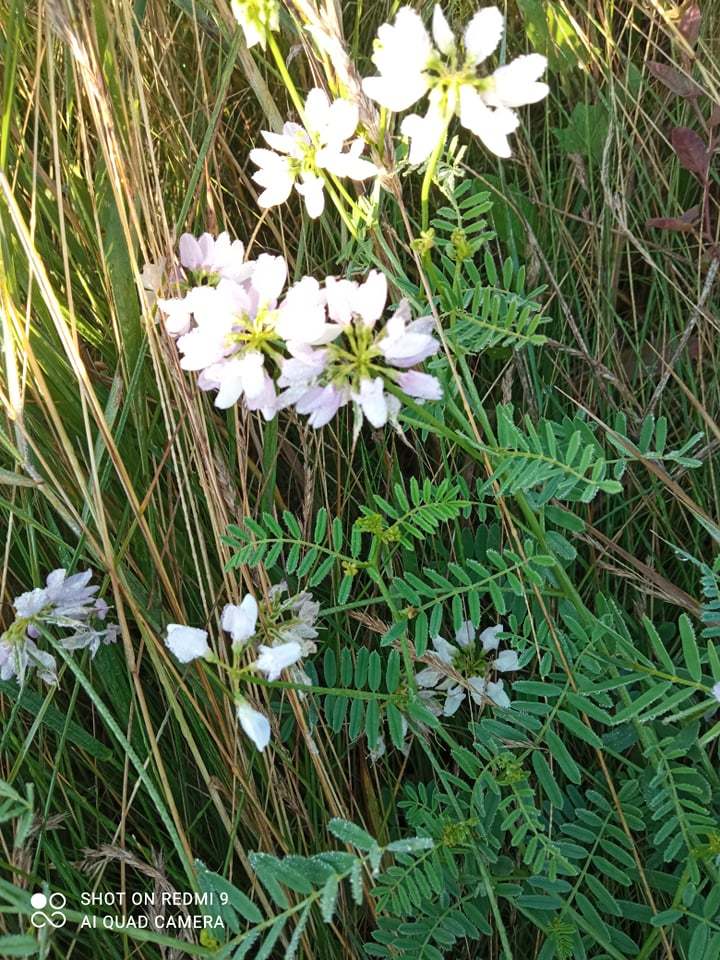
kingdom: Plantae
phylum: Tracheophyta
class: Magnoliopsida
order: Fabales
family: Fabaceae
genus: Coronilla
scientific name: Coronilla varia
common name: Crownvetch
